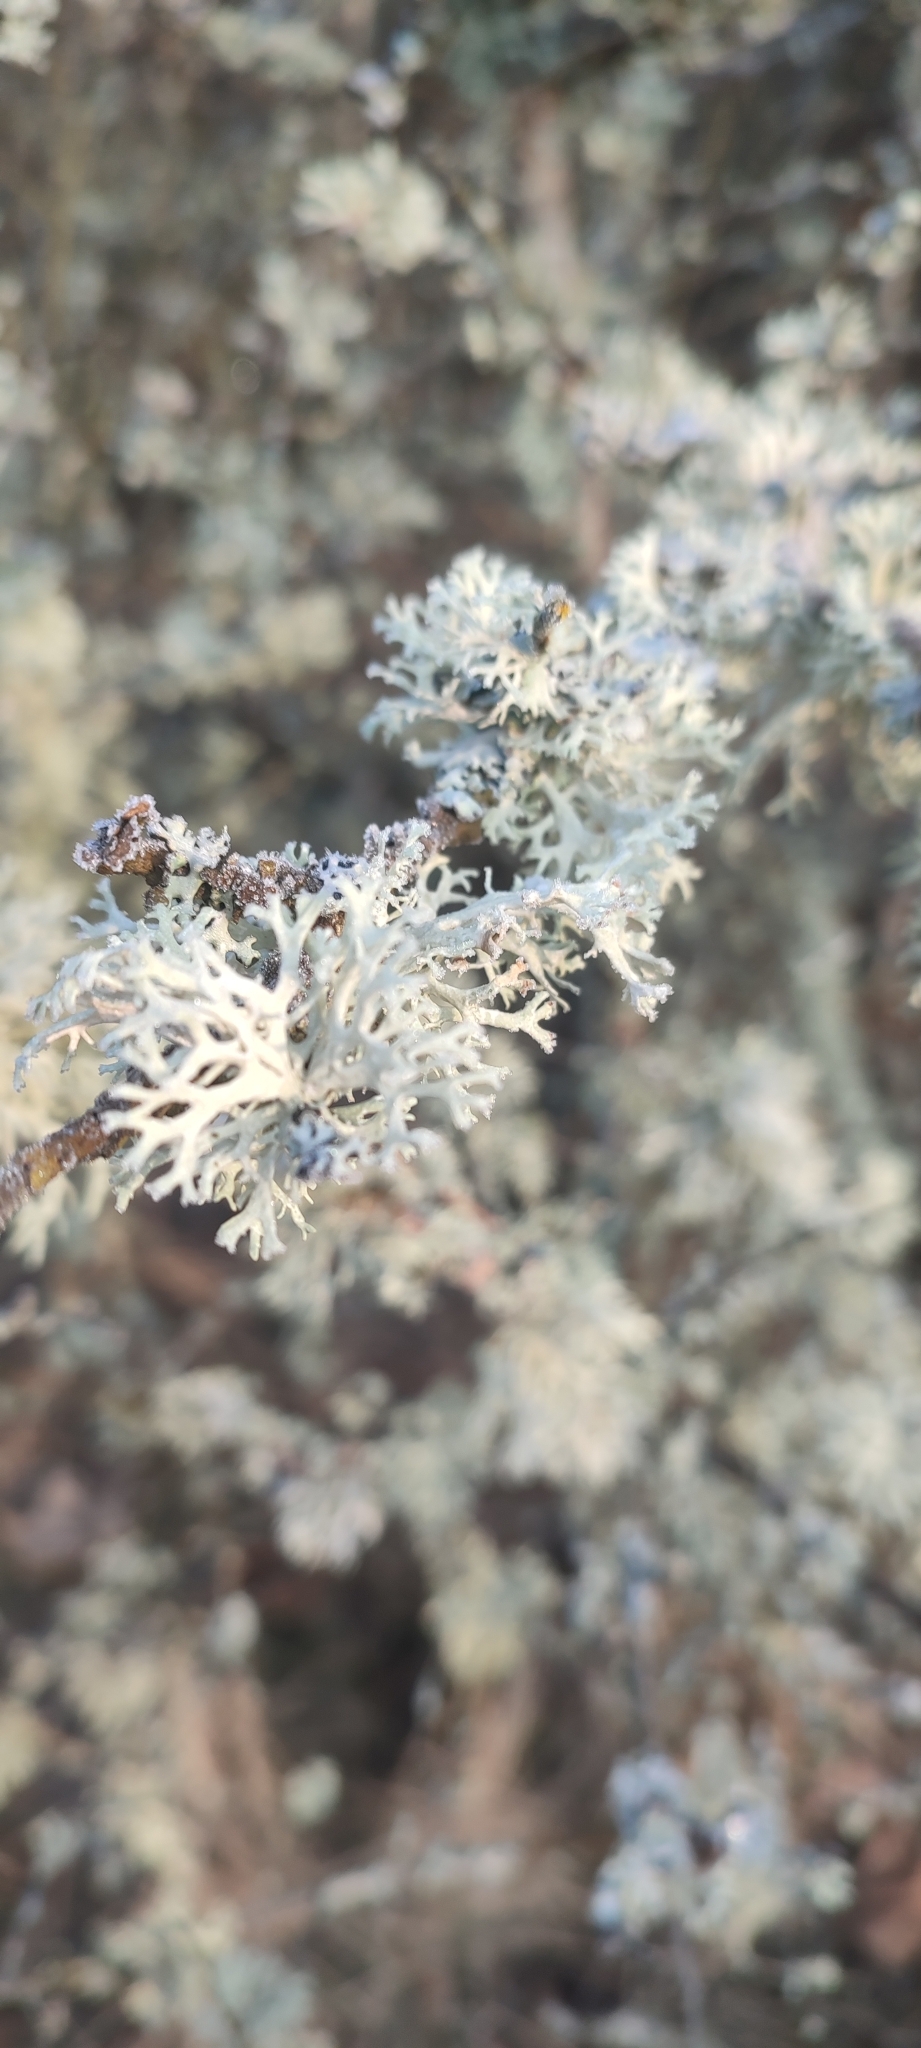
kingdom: Fungi
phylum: Ascomycota
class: Lecanoromycetes
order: Lecanorales
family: Parmeliaceae
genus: Evernia
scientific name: Evernia prunastri
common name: Oak moss
